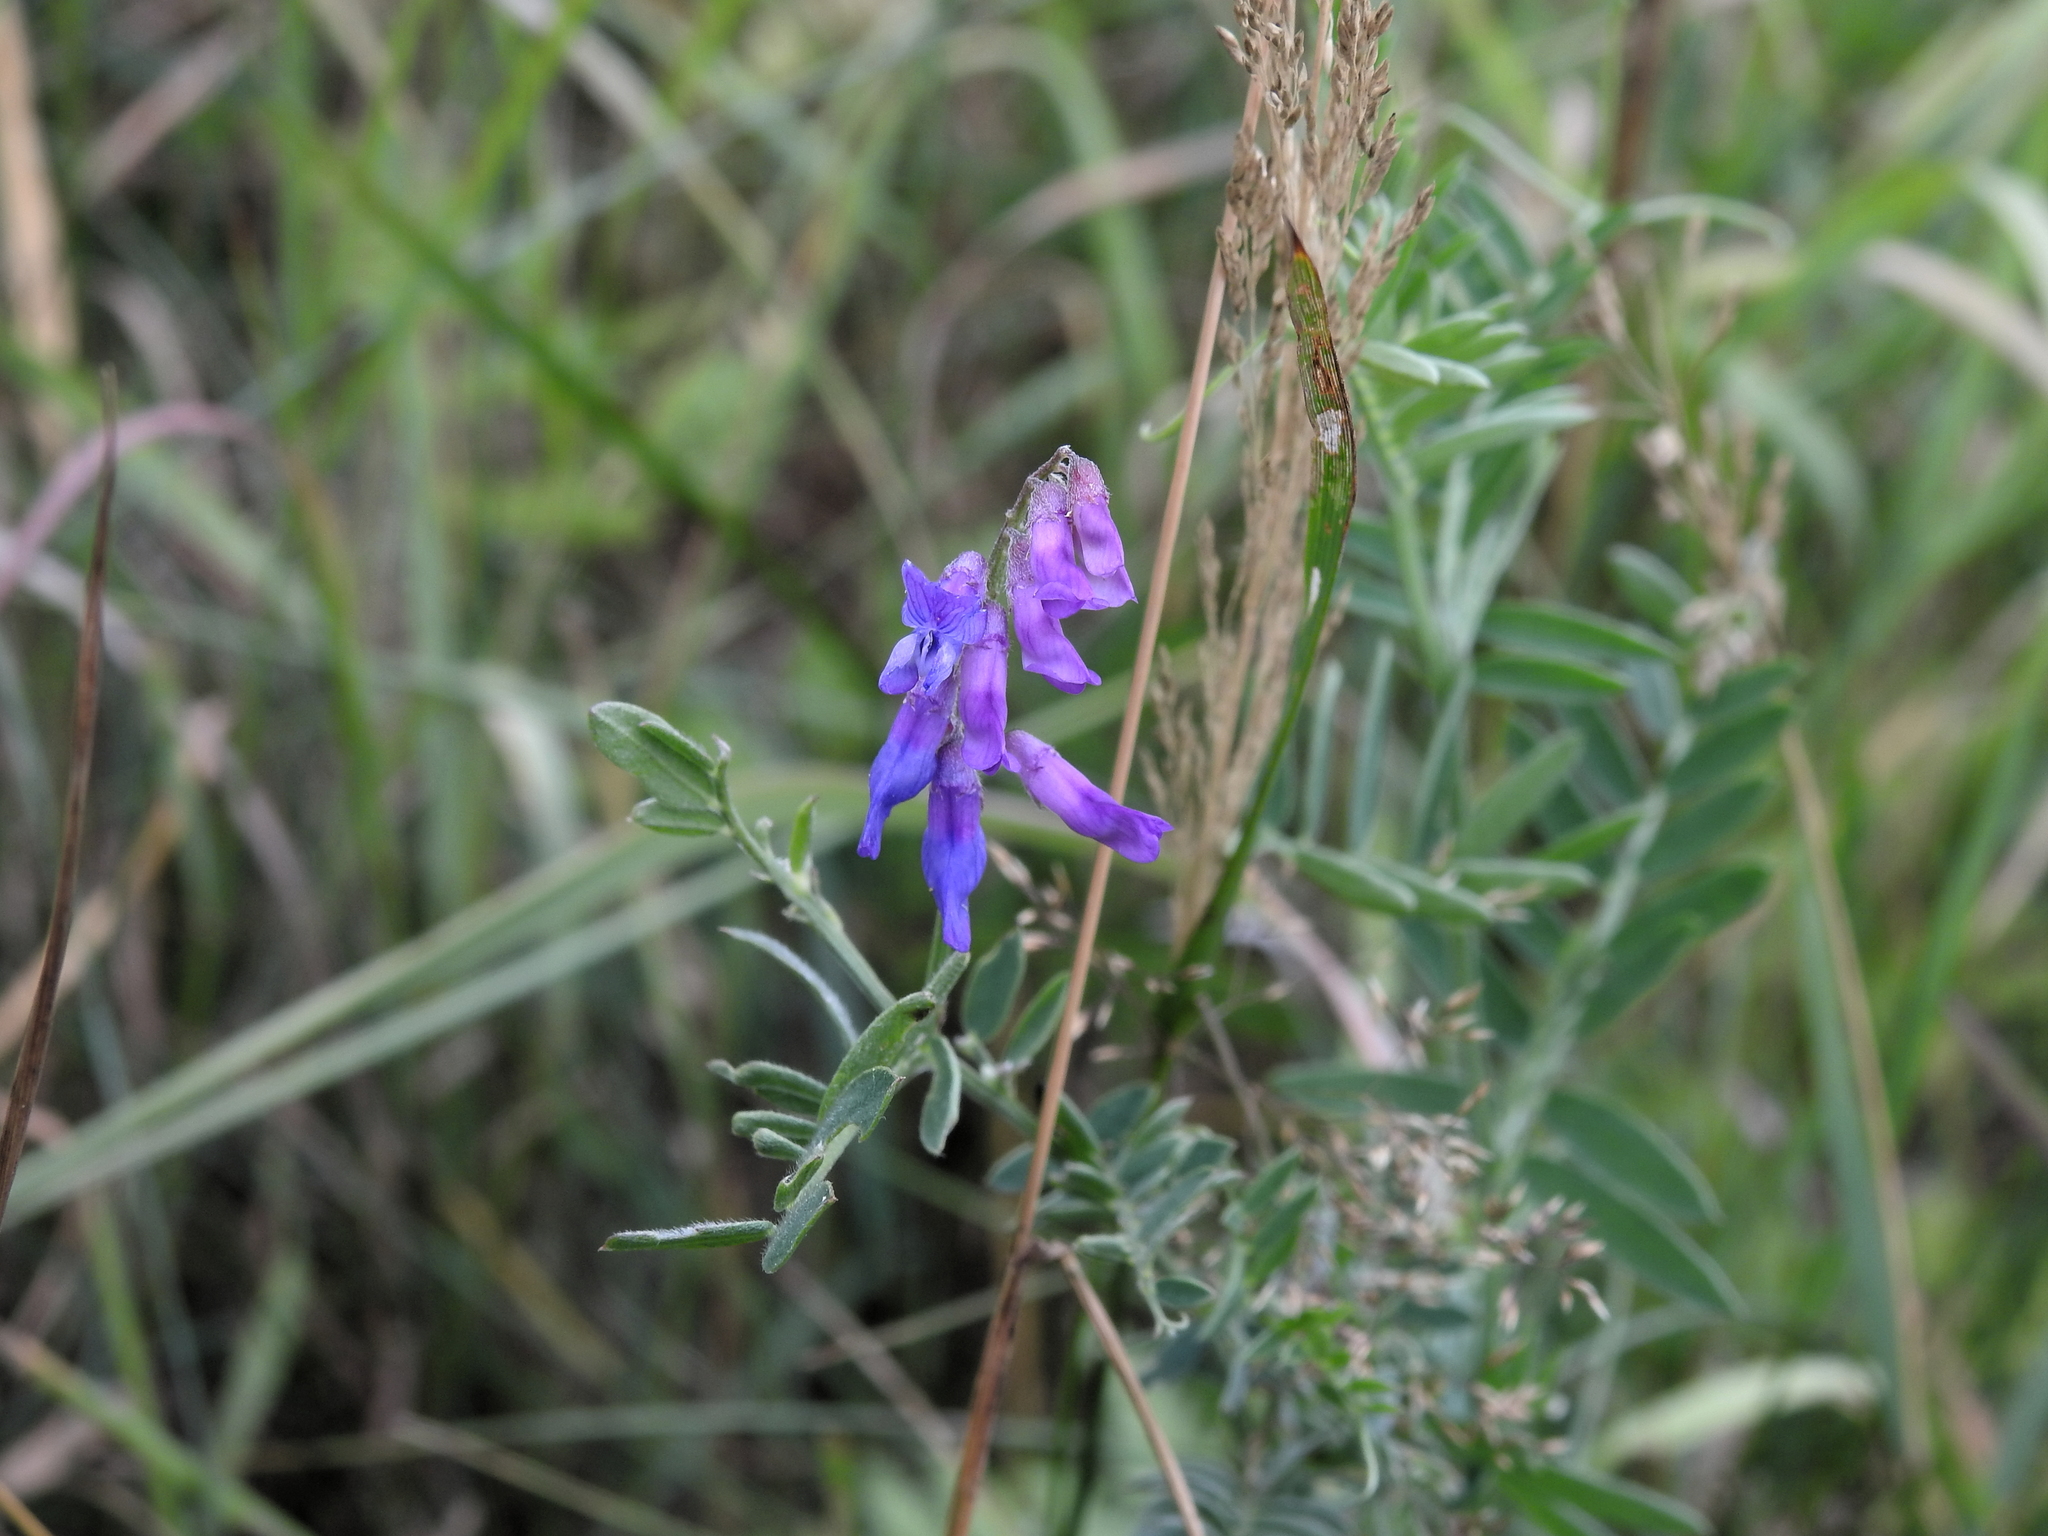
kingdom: Plantae
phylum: Tracheophyta
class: Magnoliopsida
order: Fabales
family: Fabaceae
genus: Vicia
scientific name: Vicia cracca
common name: Bird vetch
